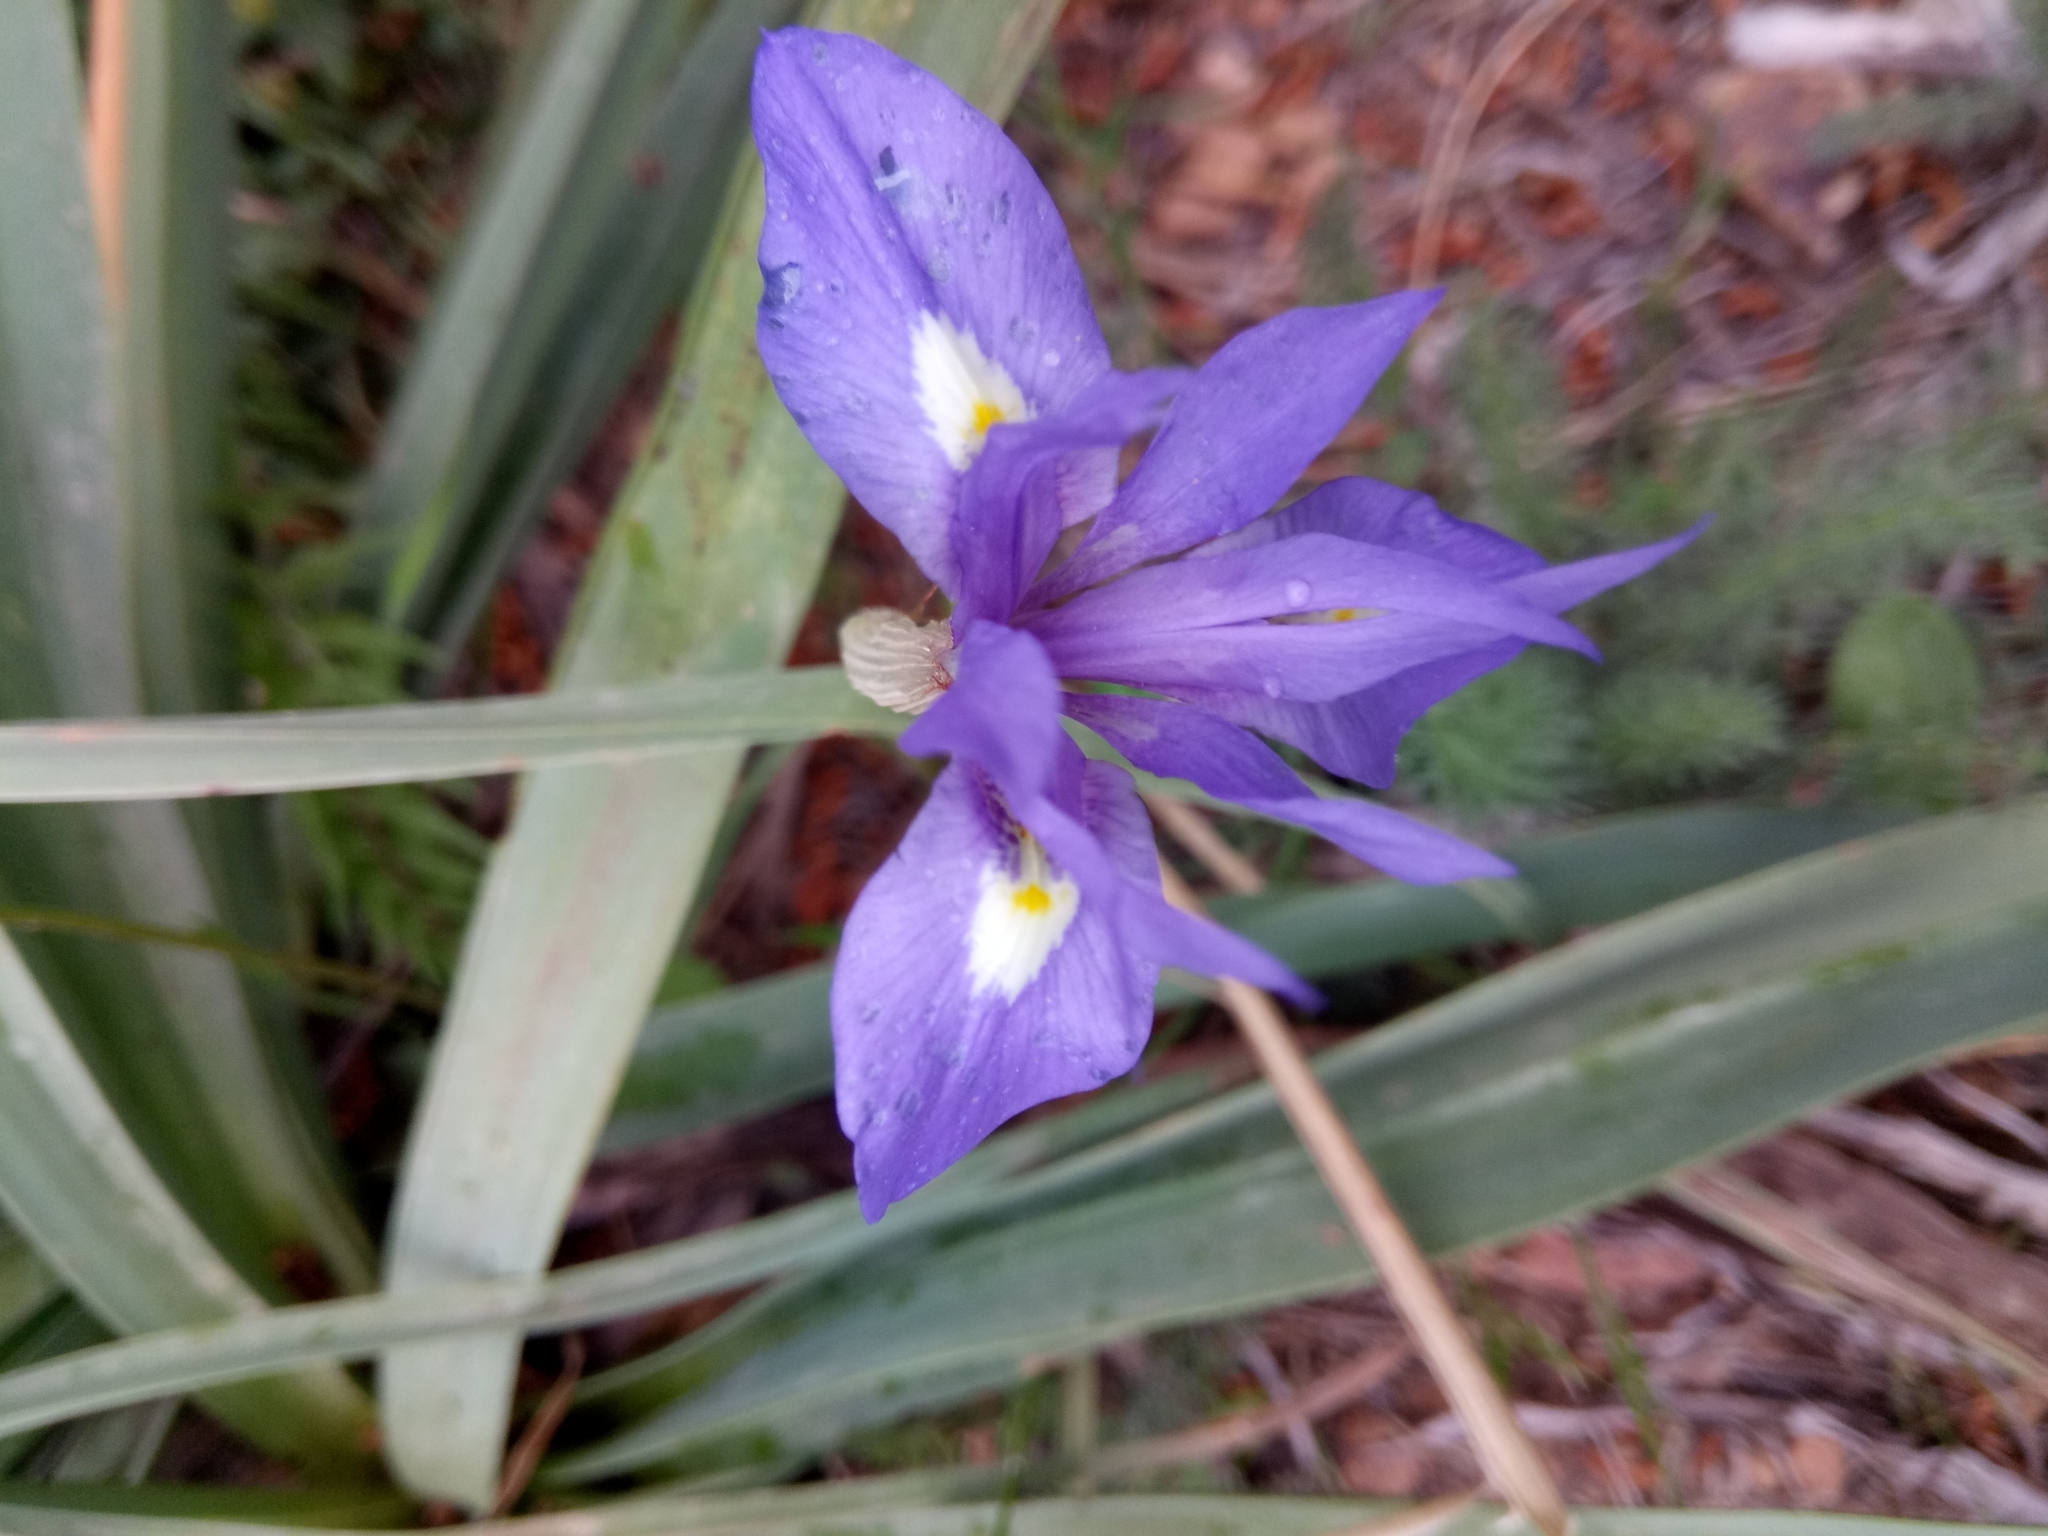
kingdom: Plantae
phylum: Tracheophyta
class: Liliopsida
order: Asparagales
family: Iridaceae
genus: Moraea
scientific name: Moraea sisyrinchium
